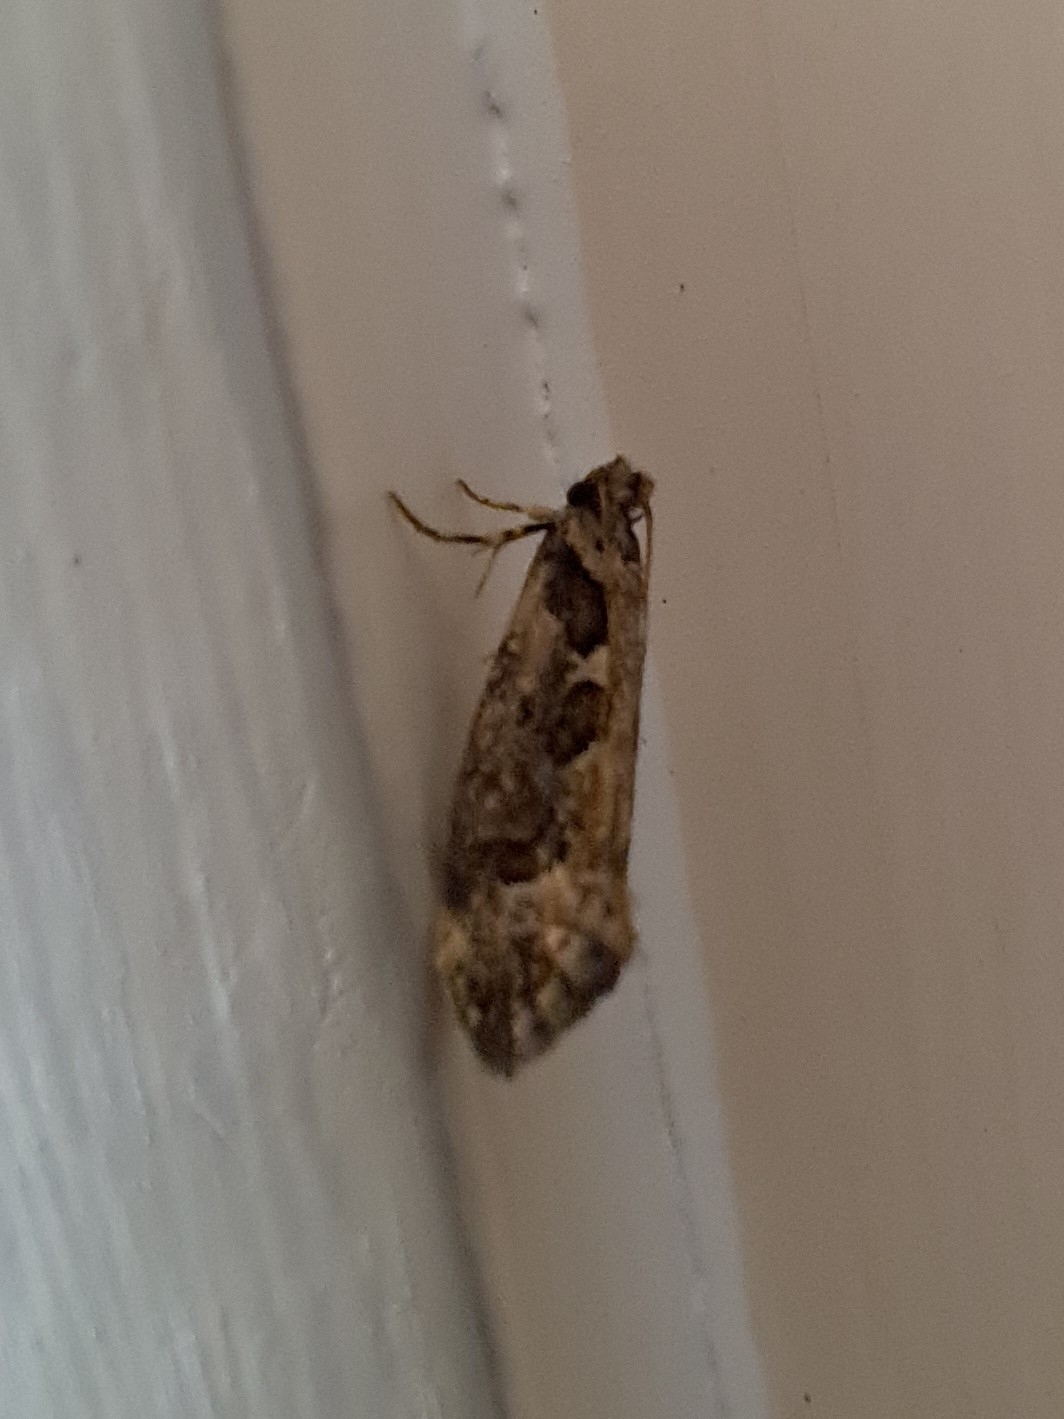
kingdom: Animalia
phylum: Arthropoda
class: Insecta
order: Lepidoptera
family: Tineidae
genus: Erechthias
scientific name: Erechthias capnitis
